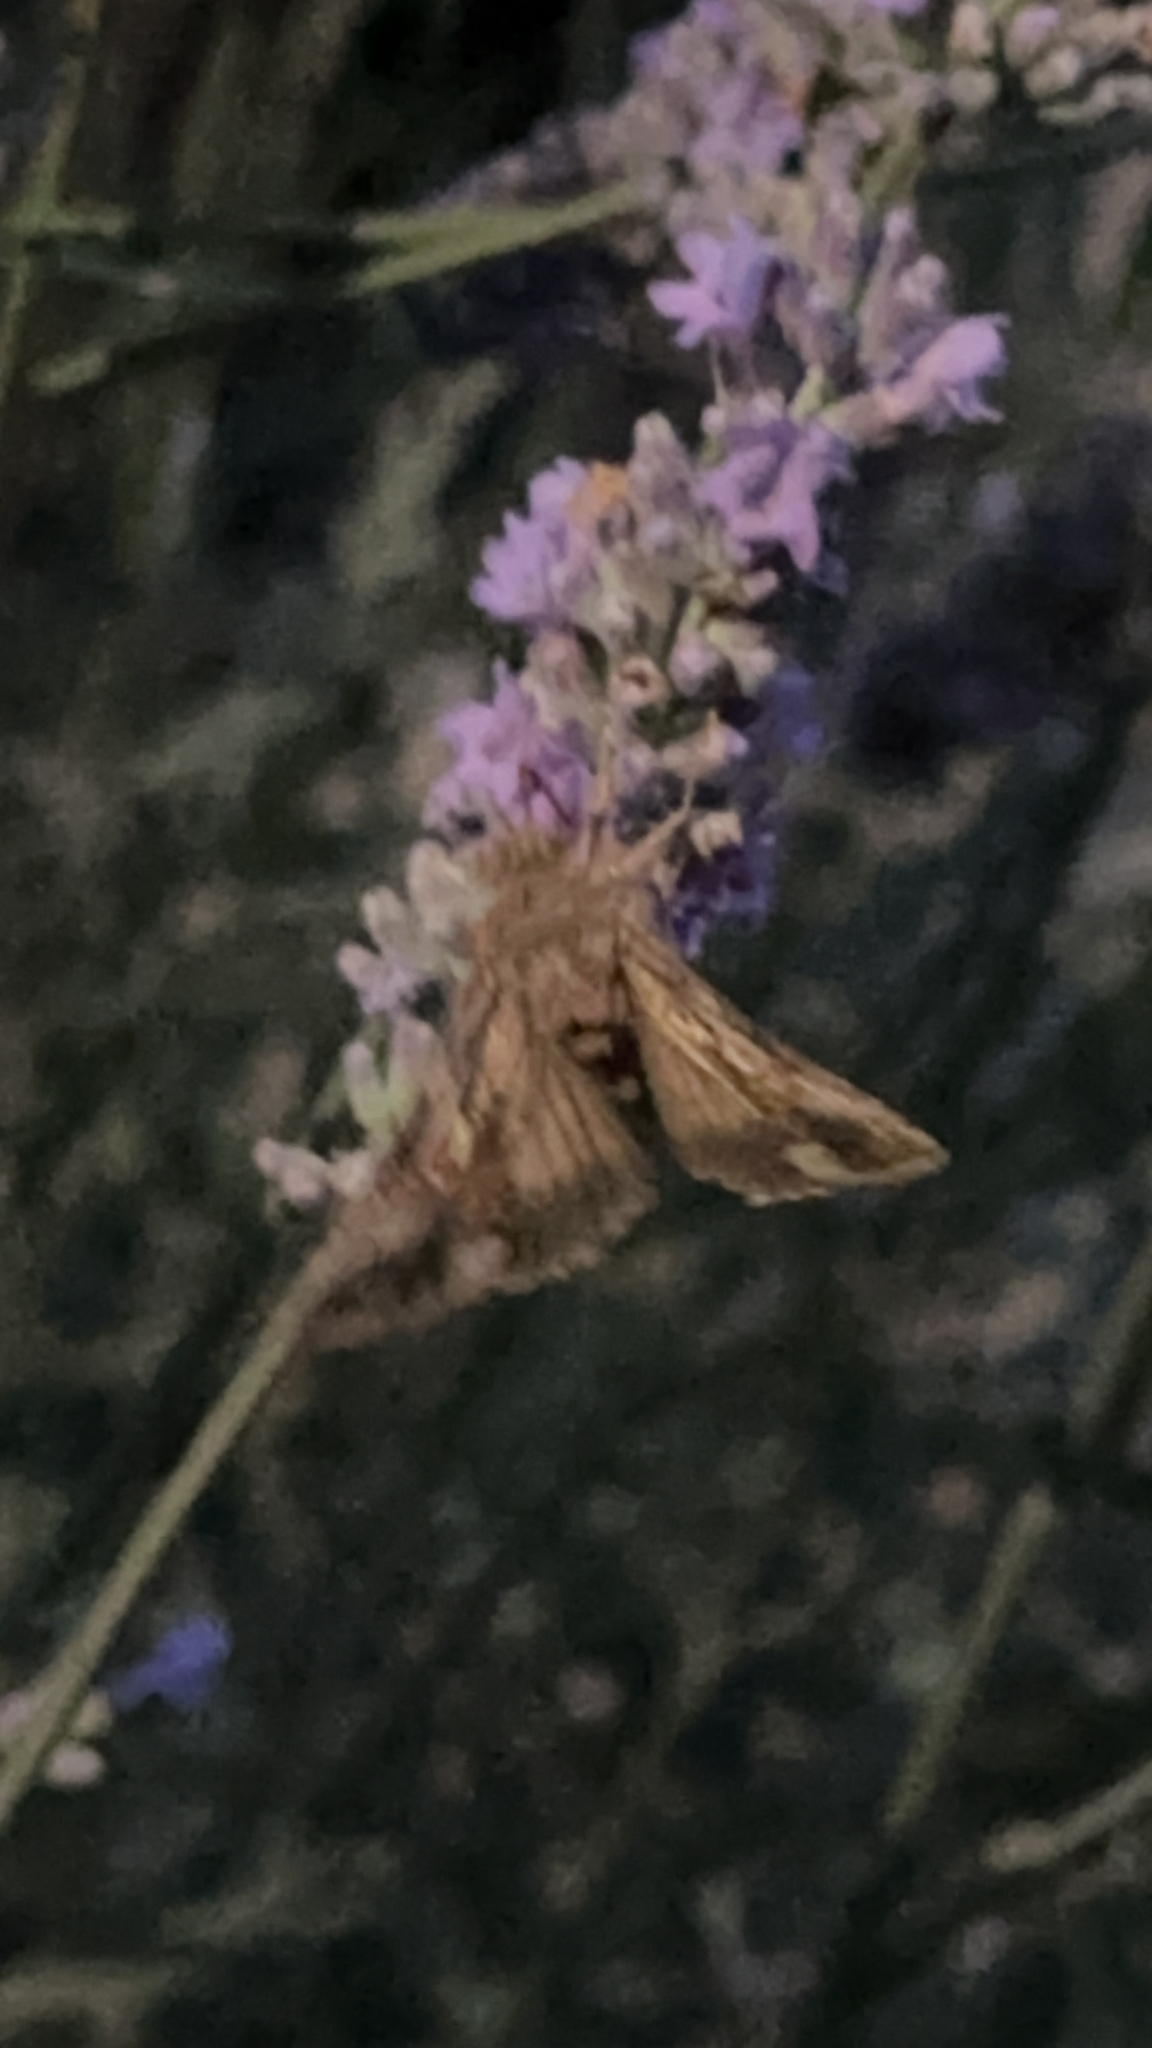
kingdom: Animalia
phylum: Arthropoda
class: Insecta
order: Lepidoptera
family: Noctuidae
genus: Autographa
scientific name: Autographa gamma
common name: Silver y
